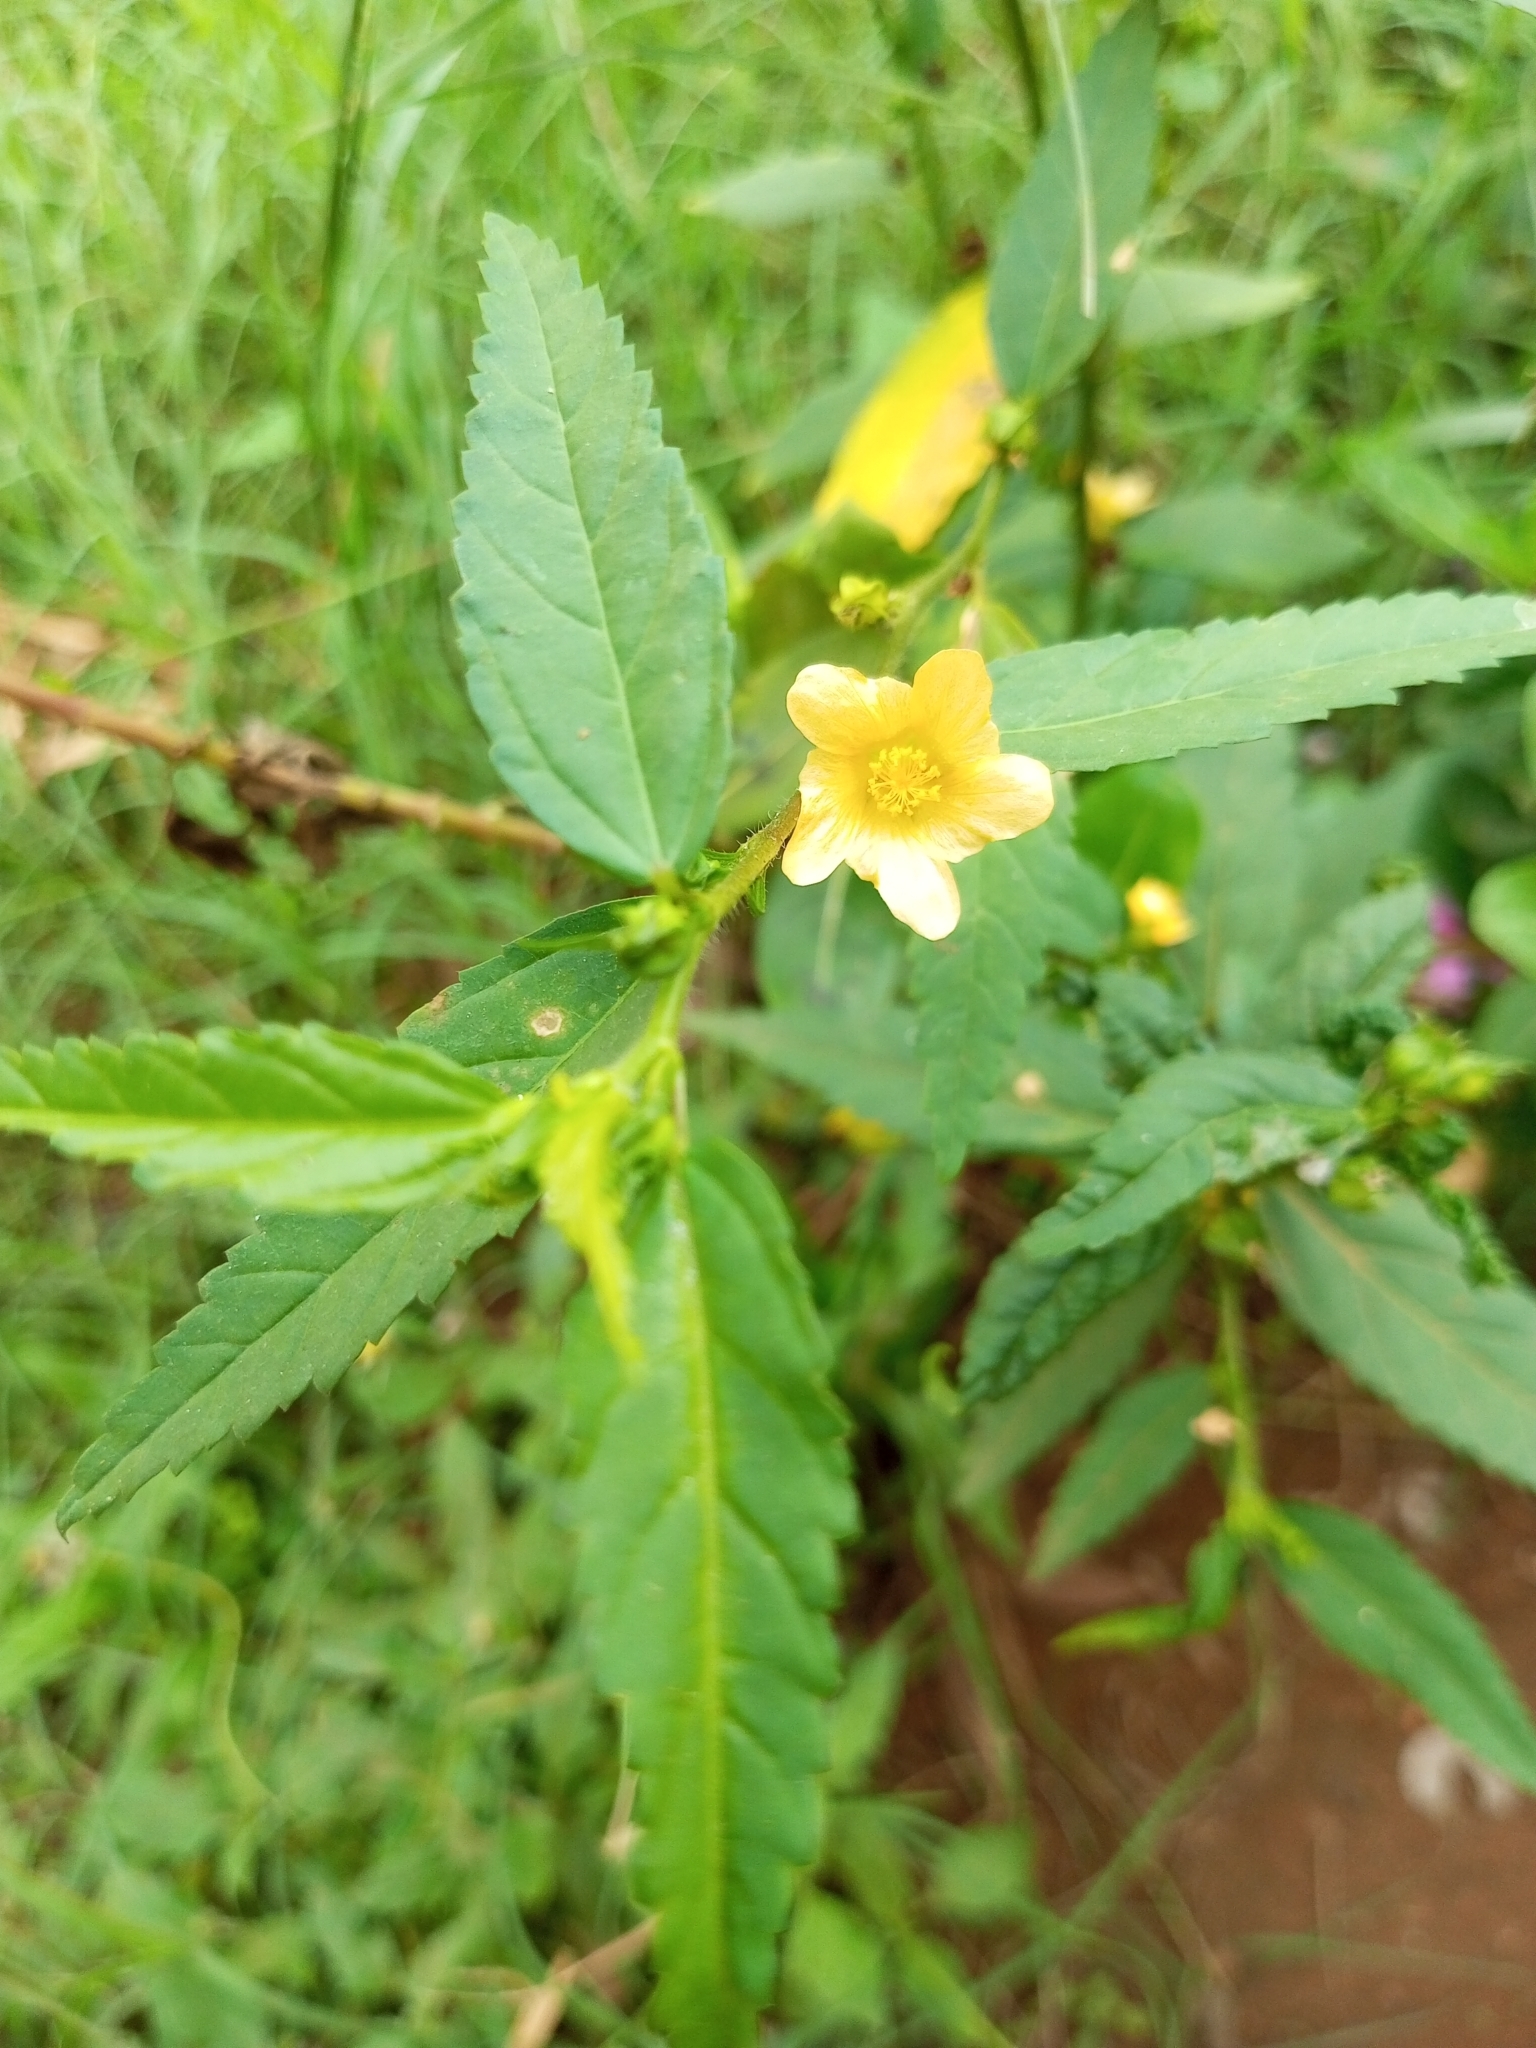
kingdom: Plantae
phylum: Tracheophyta
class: Magnoliopsida
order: Malvales
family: Malvaceae
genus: Sida
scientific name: Sida acuta
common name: Common wireweed
